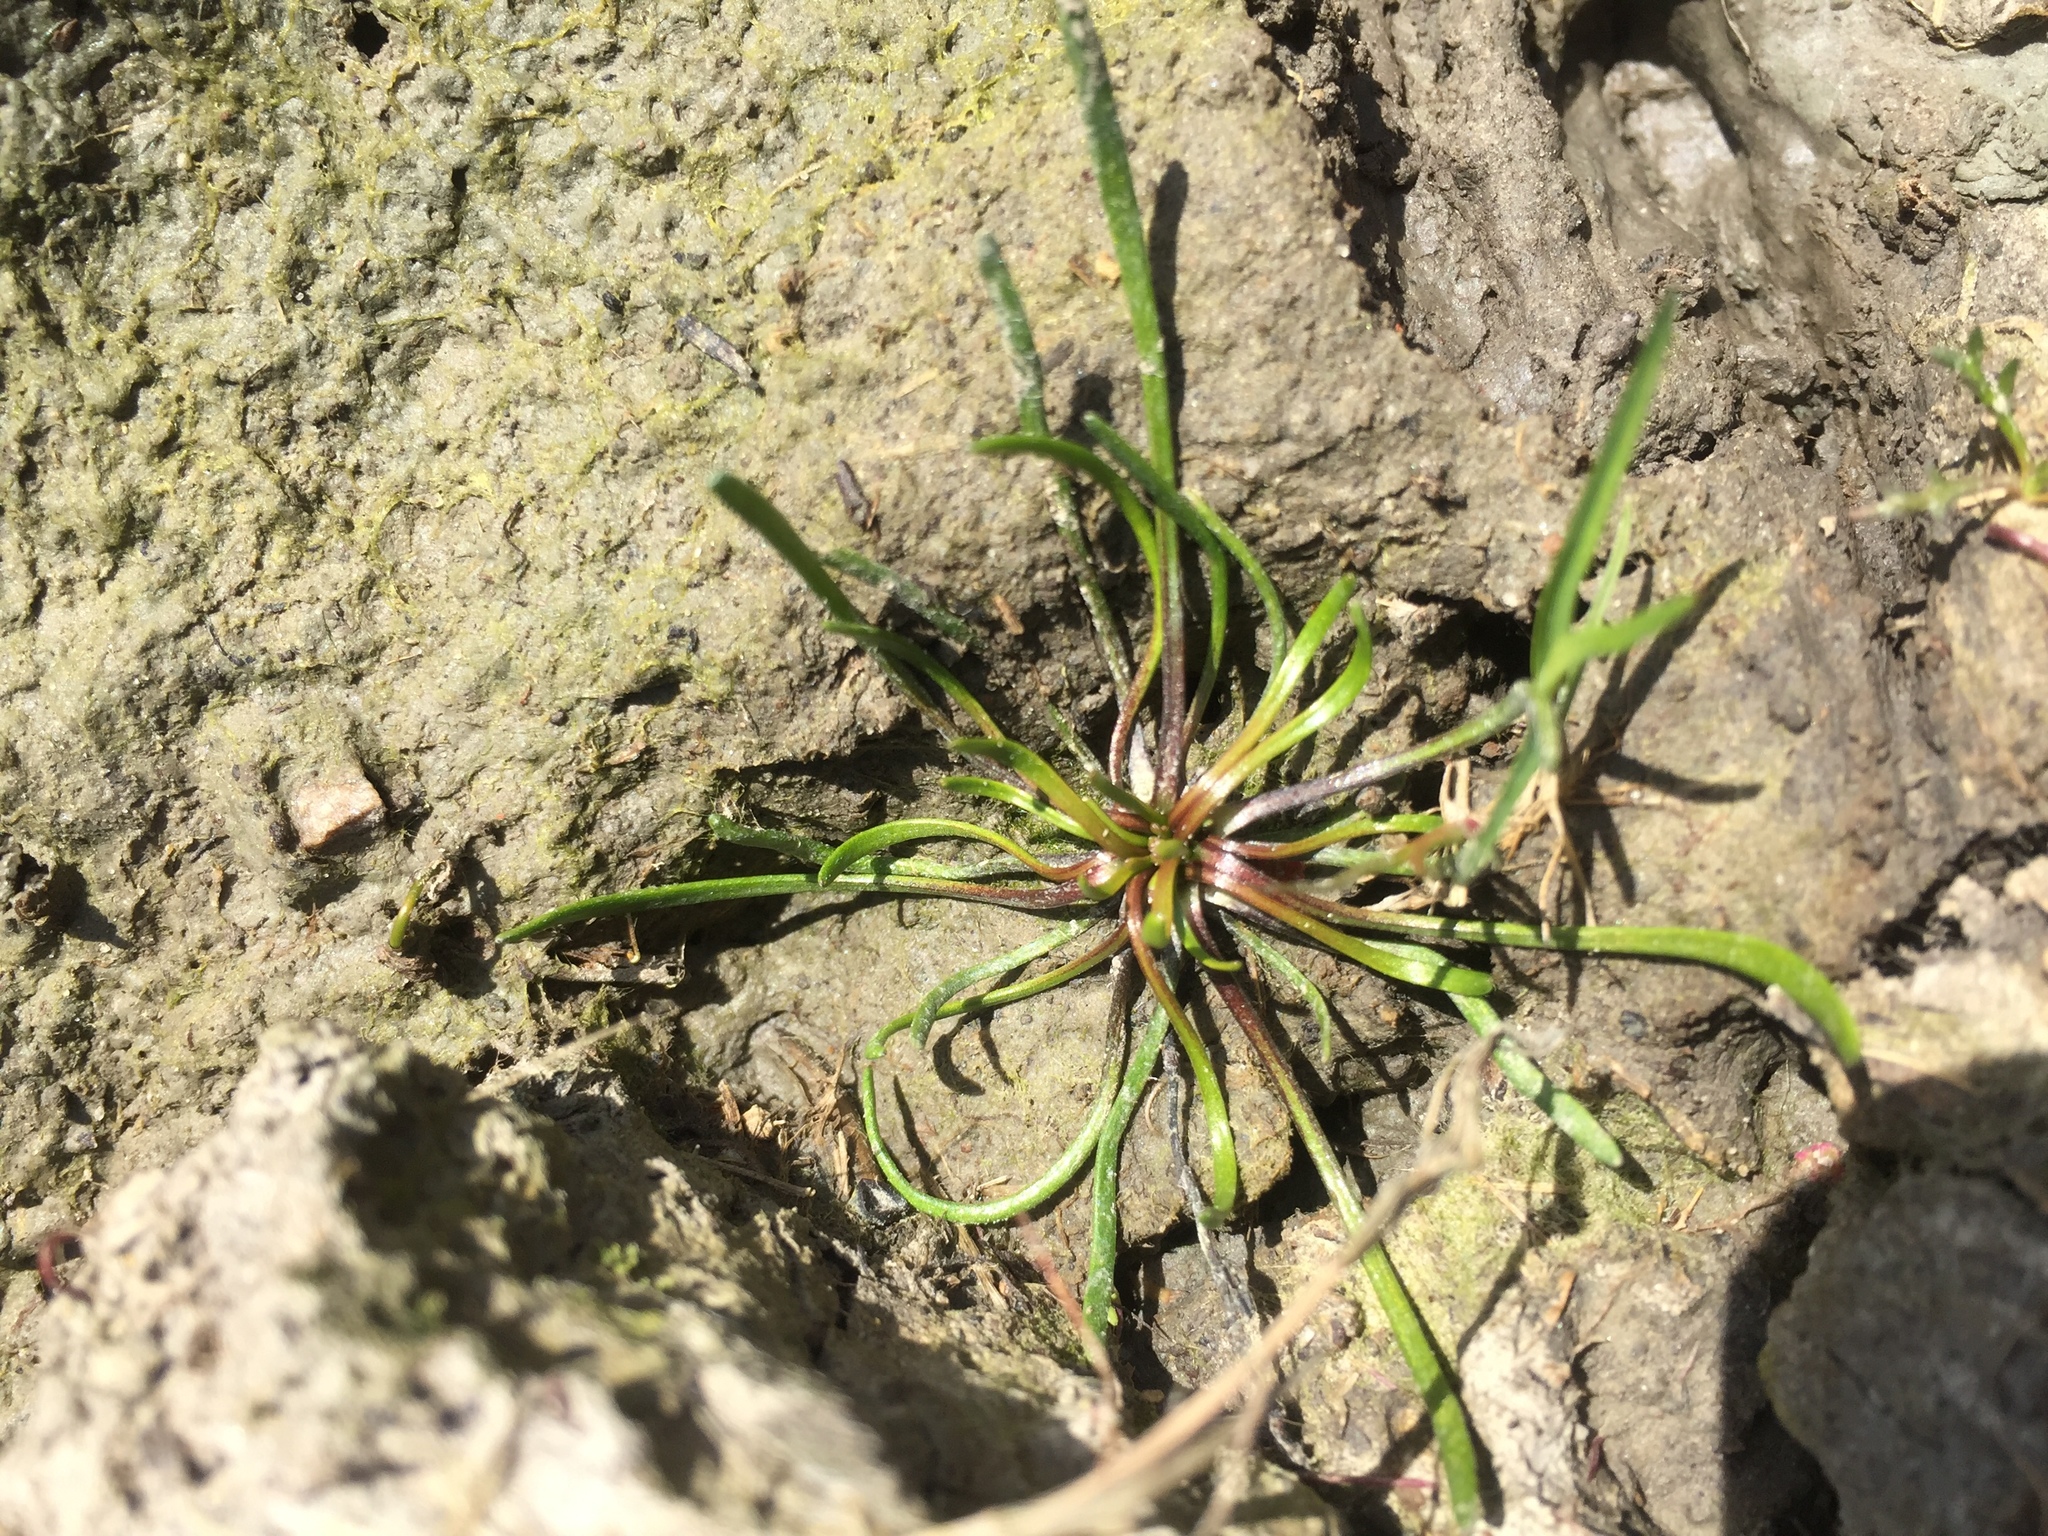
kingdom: Plantae
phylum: Tracheophyta
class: Magnoliopsida
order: Ranunculales
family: Ranunculaceae
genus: Myosurus
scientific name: Myosurus minimus
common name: Mousetail
